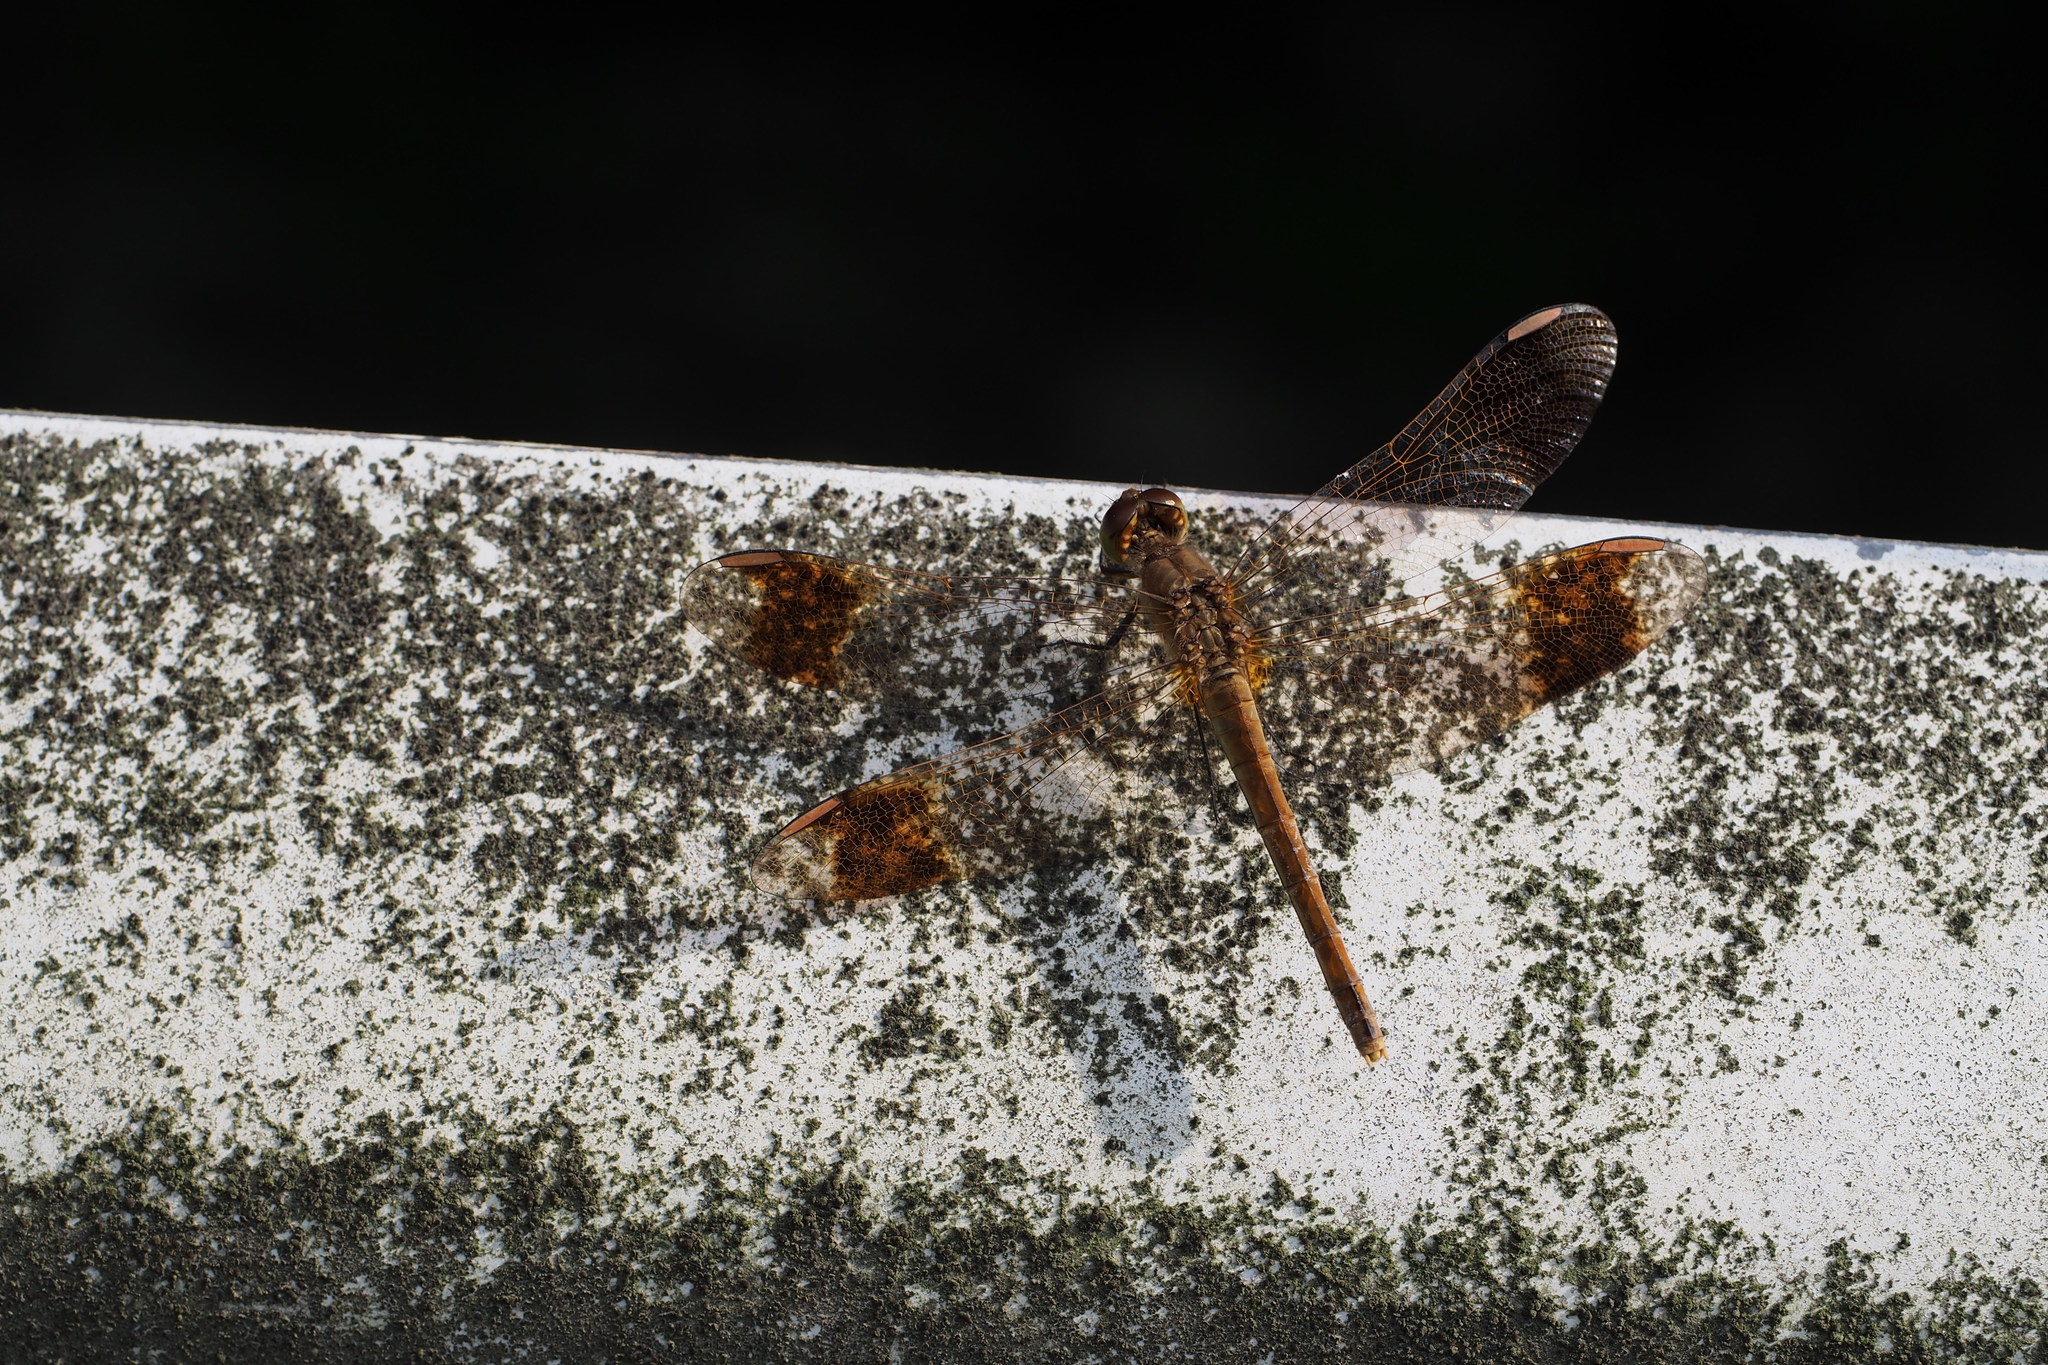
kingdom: Animalia
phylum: Arthropoda
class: Insecta
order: Odonata
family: Libellulidae
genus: Sympetrum
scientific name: Sympetrum pedemontanum
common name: Banded darter
